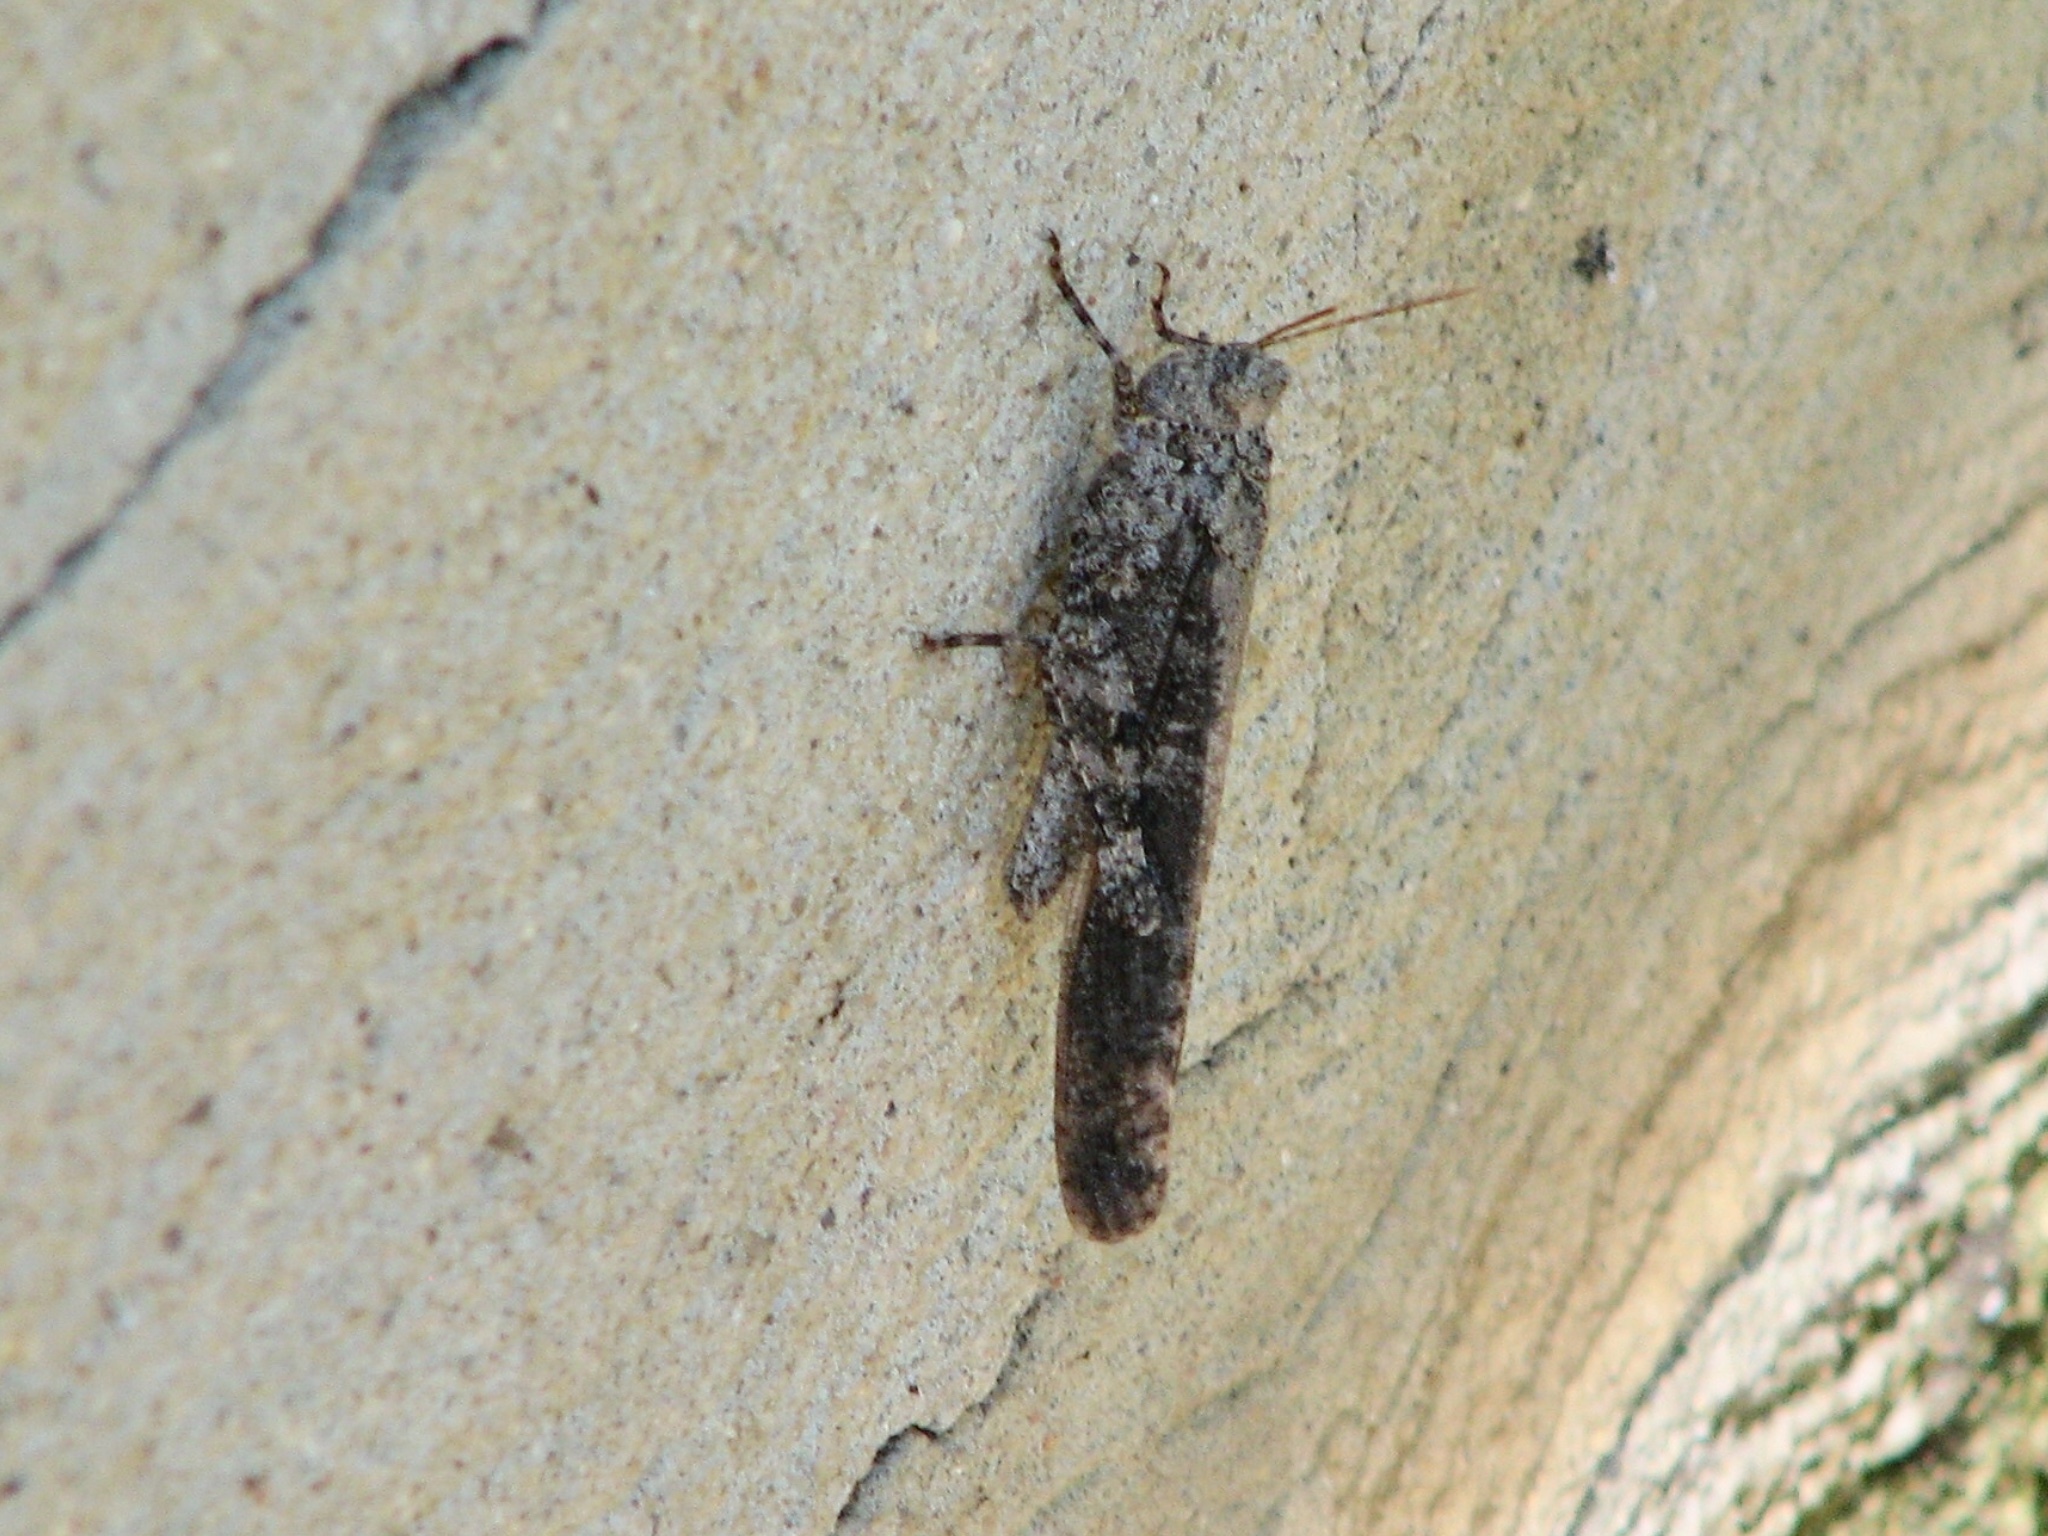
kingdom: Animalia
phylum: Arthropoda
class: Insecta
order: Orthoptera
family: Acrididae
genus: Dissosteira
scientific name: Dissosteira carolina
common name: Carolina grasshopper
